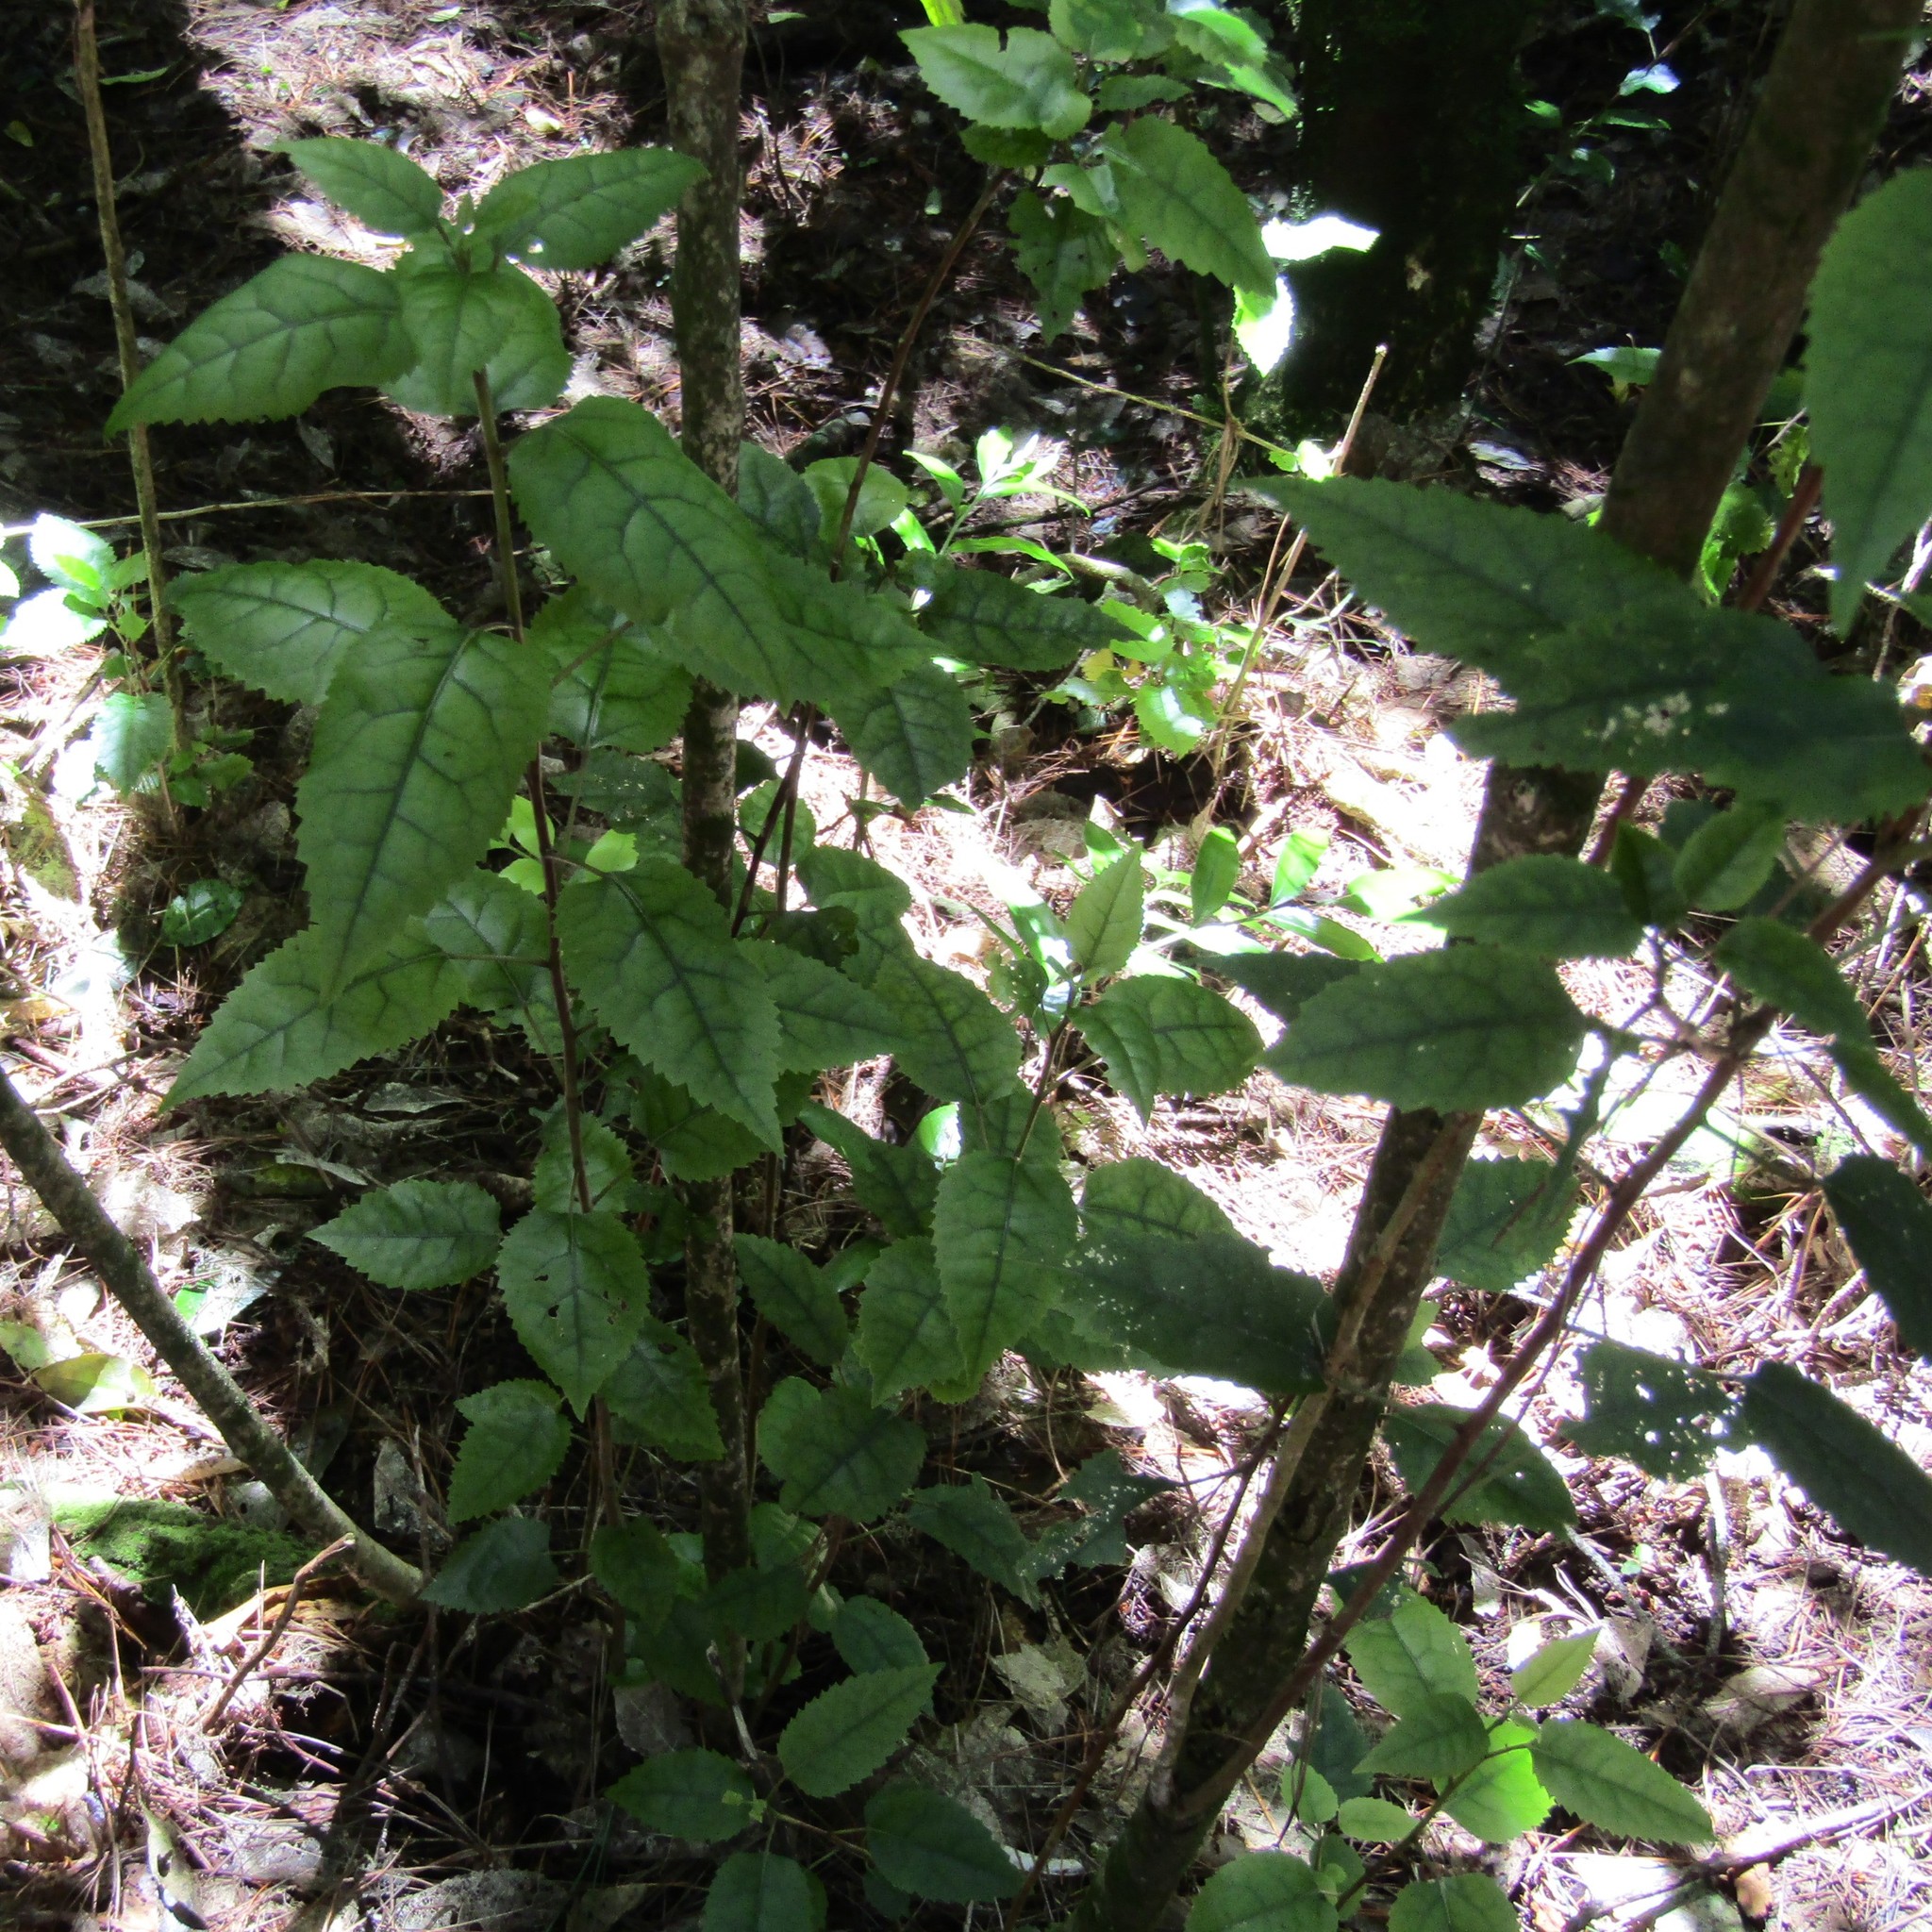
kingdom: Plantae
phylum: Tracheophyta
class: Magnoliopsida
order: Malvales
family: Malvaceae
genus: Hoheria
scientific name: Hoheria populnea
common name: Lacebark
